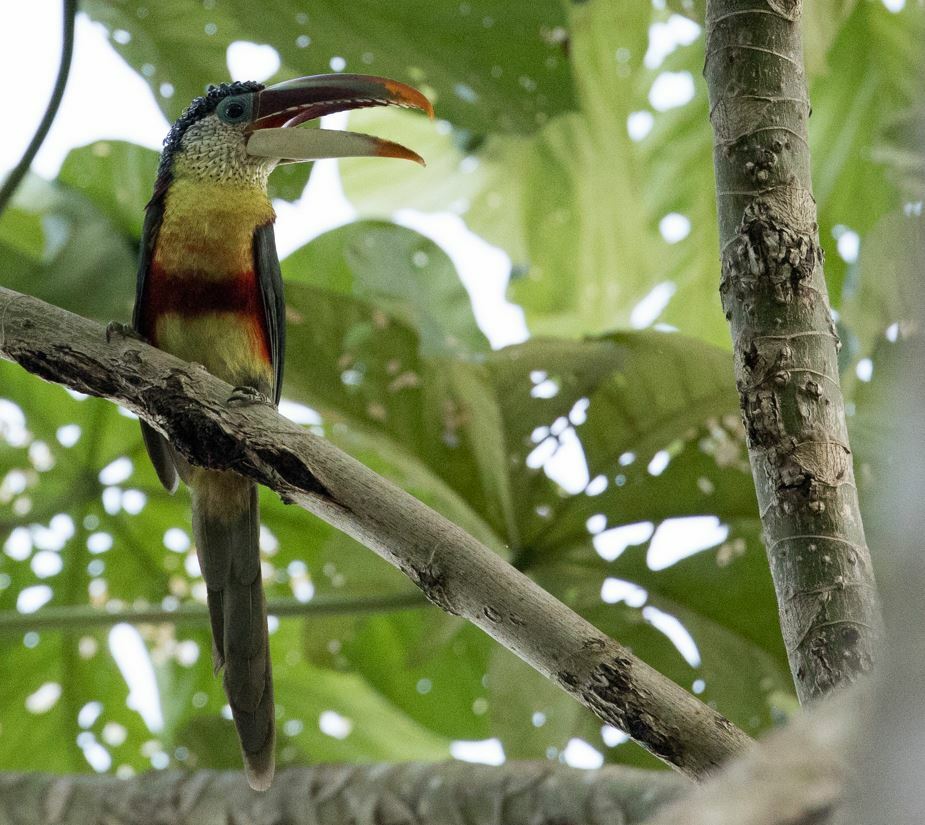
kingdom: Animalia
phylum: Chordata
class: Aves
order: Piciformes
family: Ramphastidae
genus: Pteroglossus
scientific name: Pteroglossus beauharnaisii
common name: Curl-crested aracari
